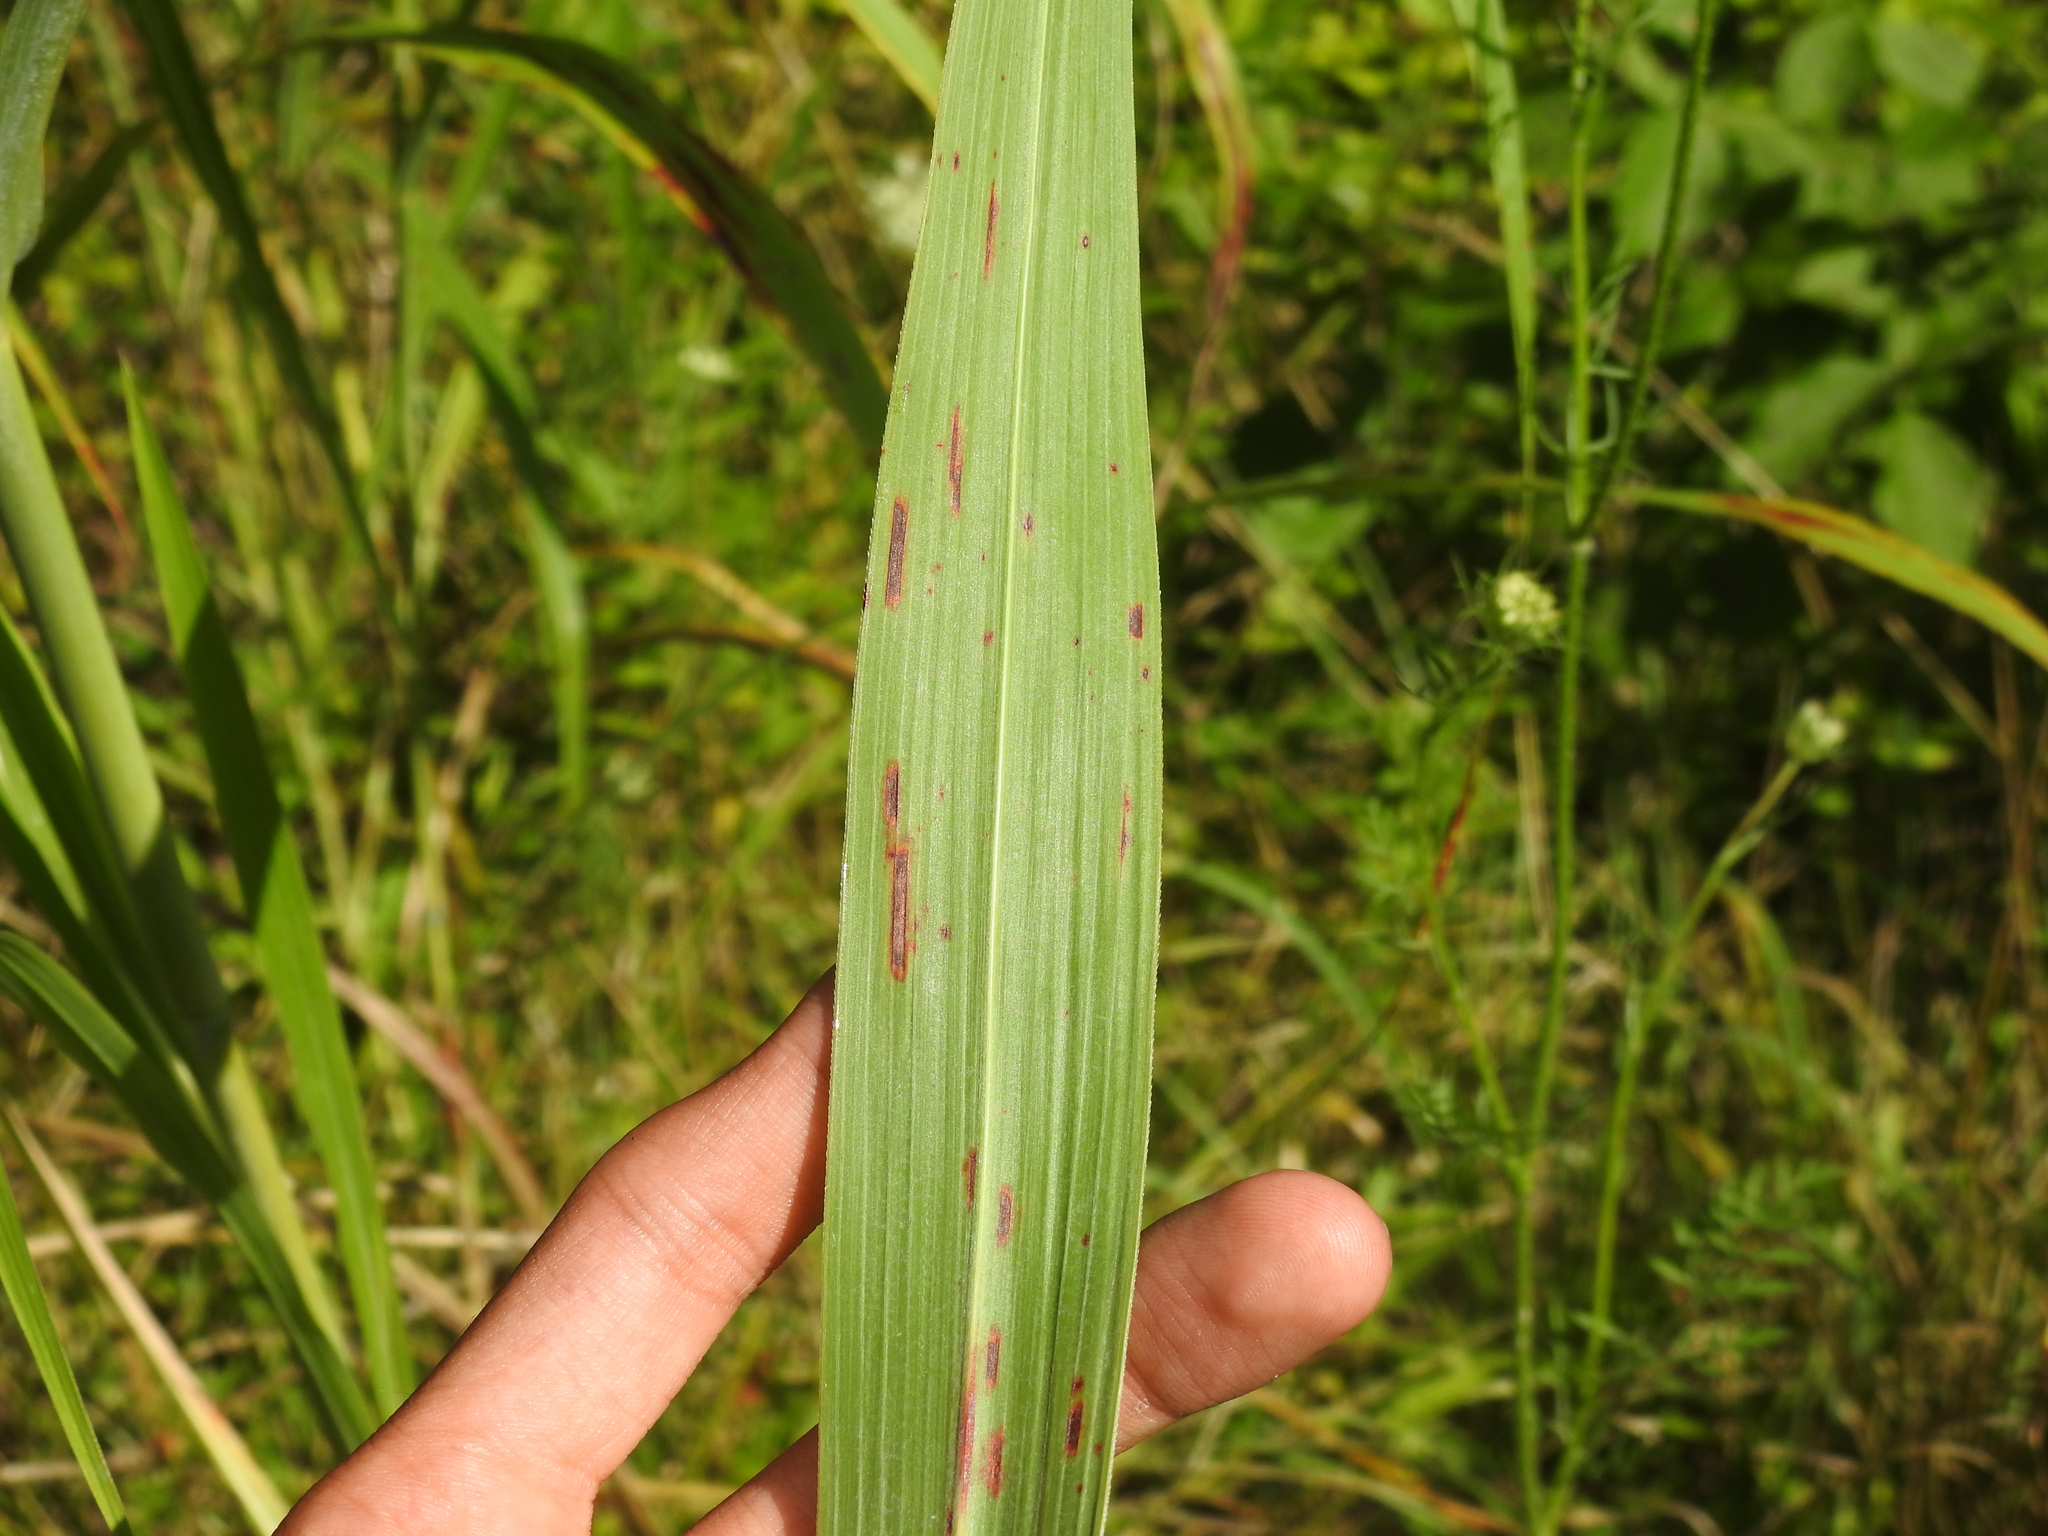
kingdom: Bacteria
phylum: Proteobacteria
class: Gammaproteobacteria
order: Xanthomonadales
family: Xanthomonadaceae
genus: Xanthomonas
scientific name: Xanthomonas vasicola
